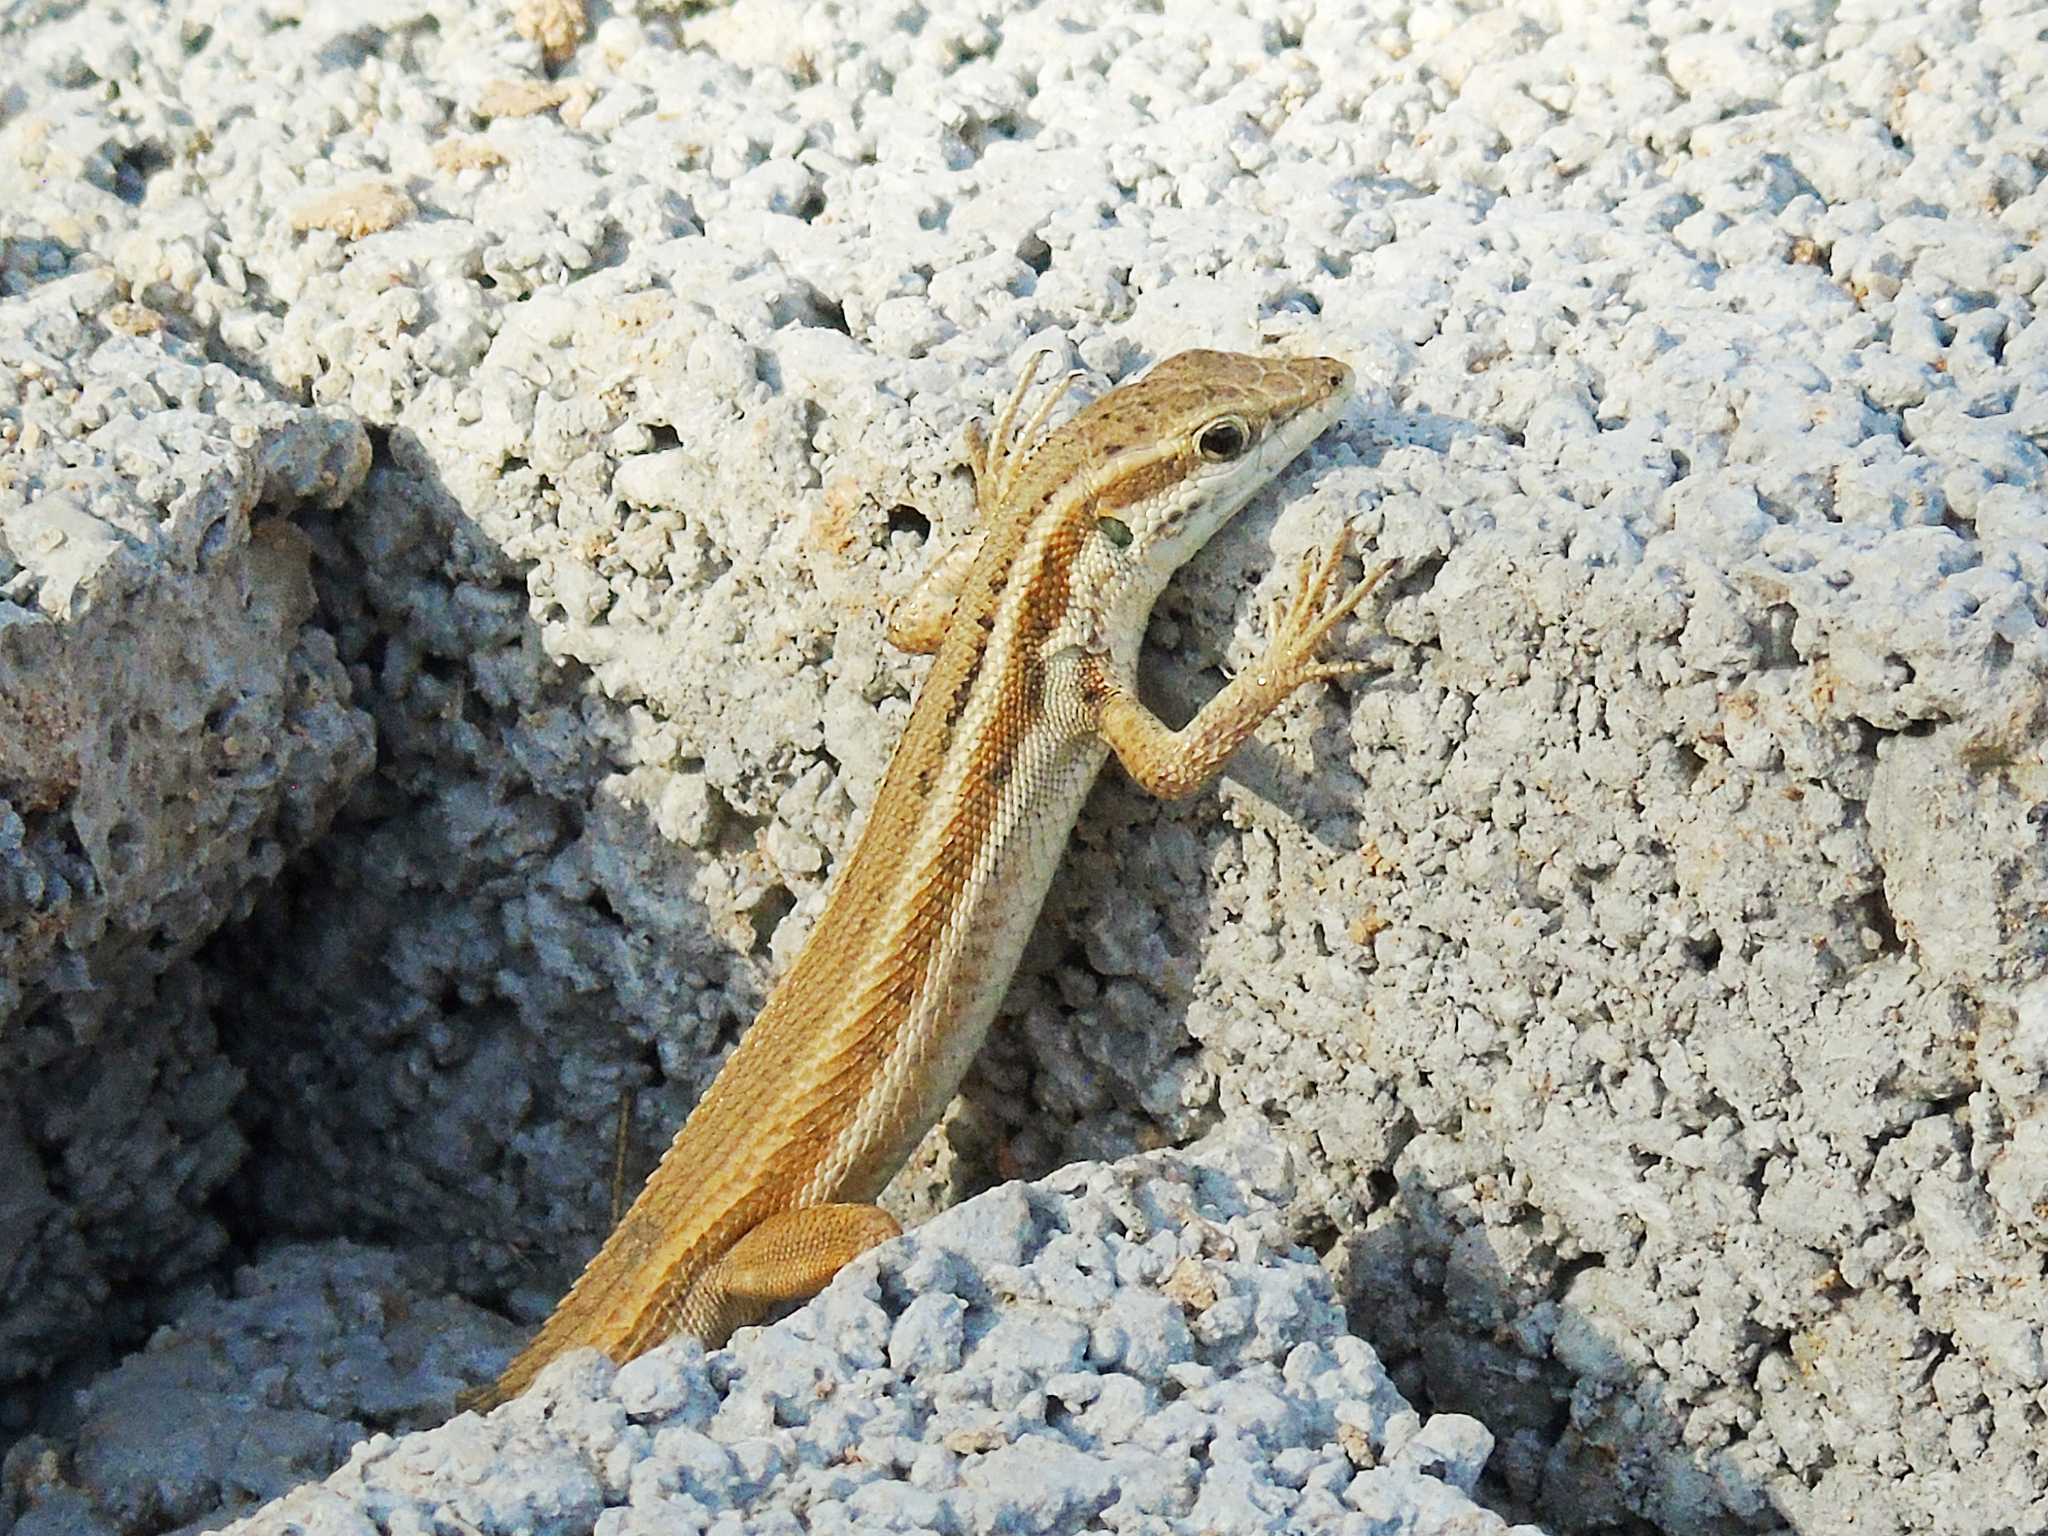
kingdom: Animalia
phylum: Chordata
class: Squamata
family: Lacertidae
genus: Ophisops
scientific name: Ophisops elegans
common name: Snake-eyed lizard
